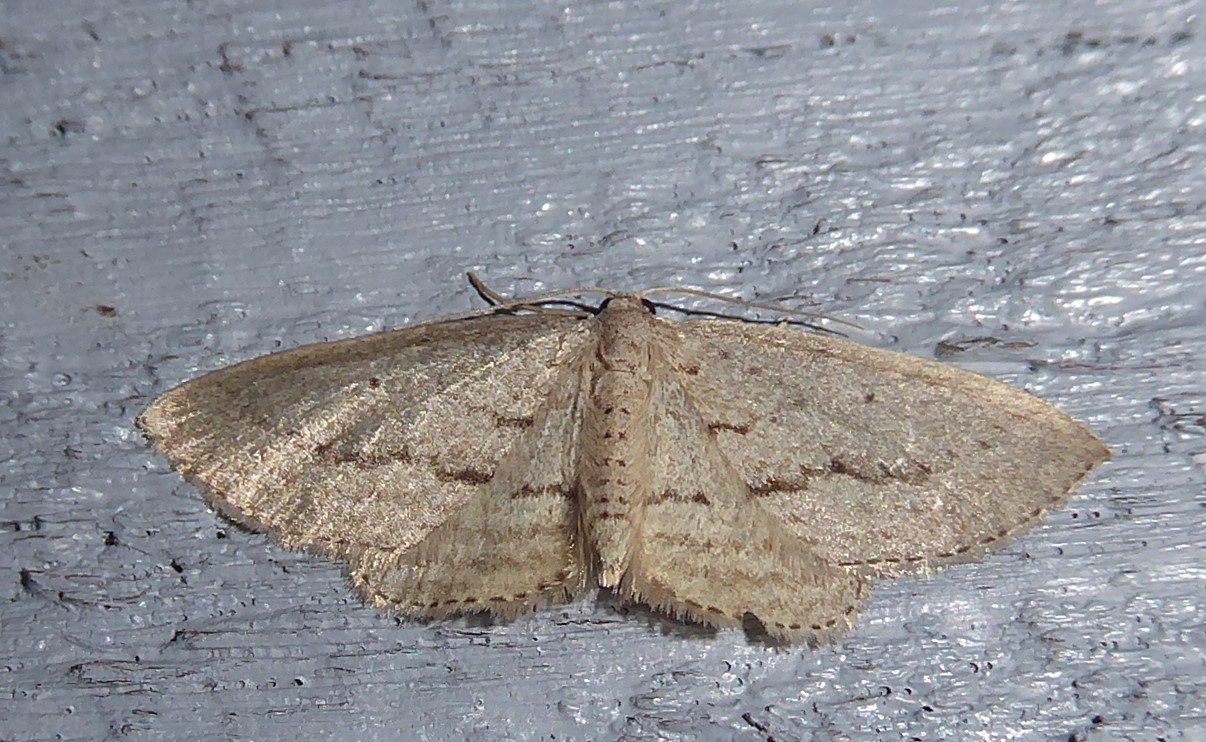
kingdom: Animalia
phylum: Arthropoda
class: Insecta
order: Lepidoptera
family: Geometridae
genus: Poecilasthena
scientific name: Poecilasthena schistaria
